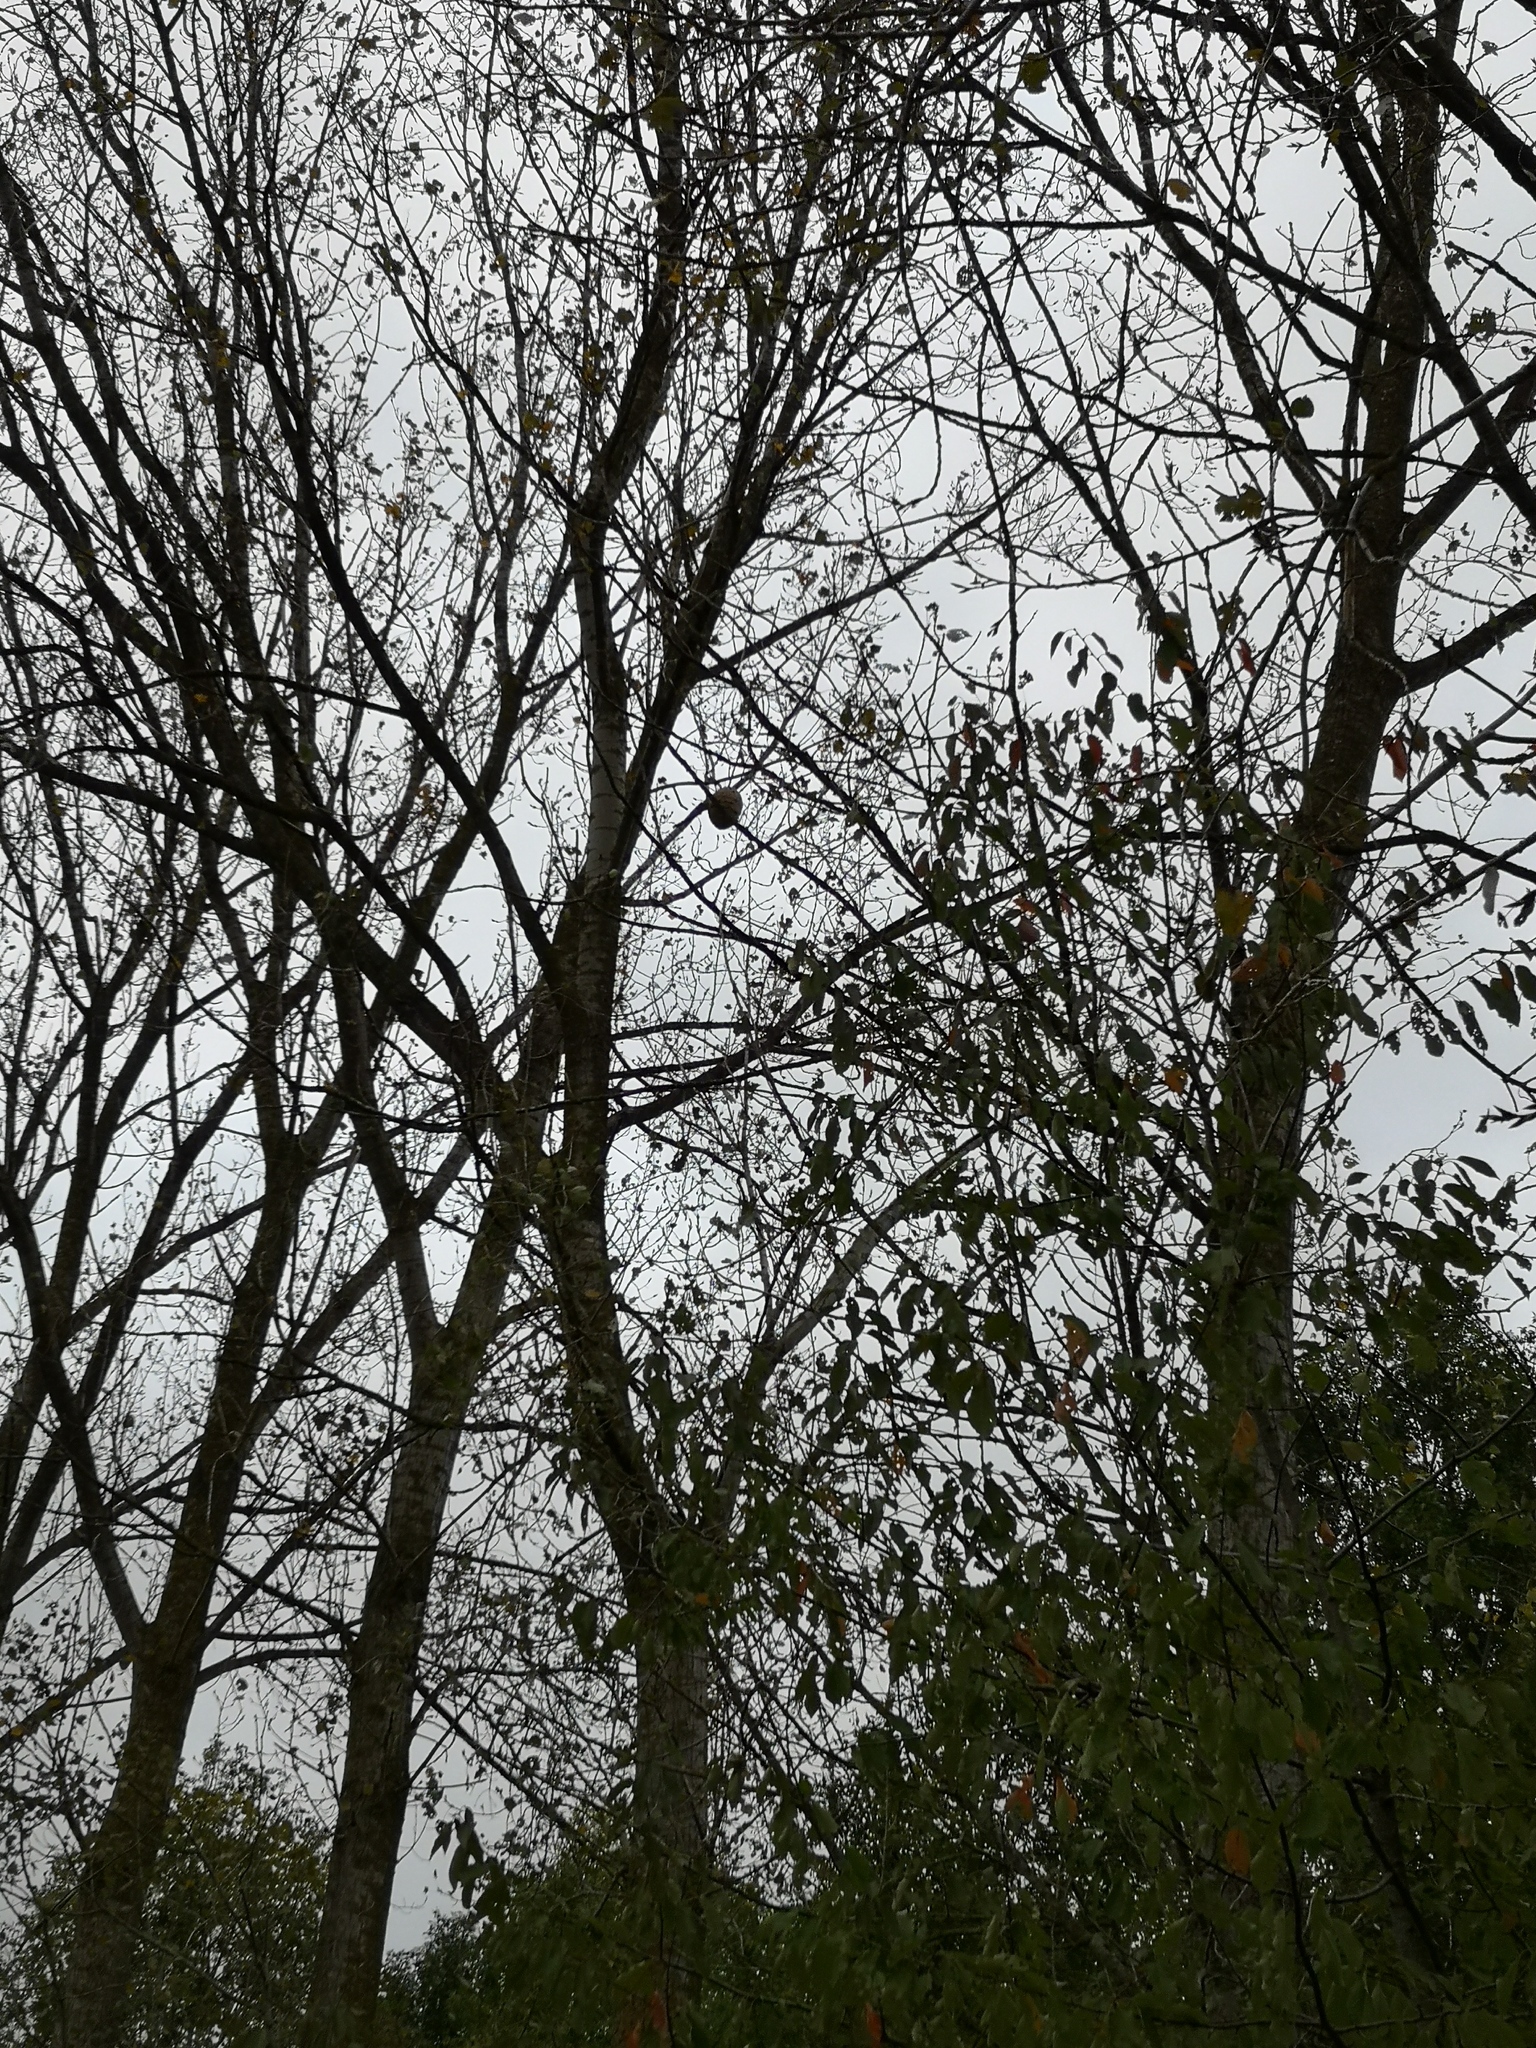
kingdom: Animalia
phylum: Arthropoda
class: Insecta
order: Hymenoptera
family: Vespidae
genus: Vespa
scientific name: Vespa velutina
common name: Asian hornet
